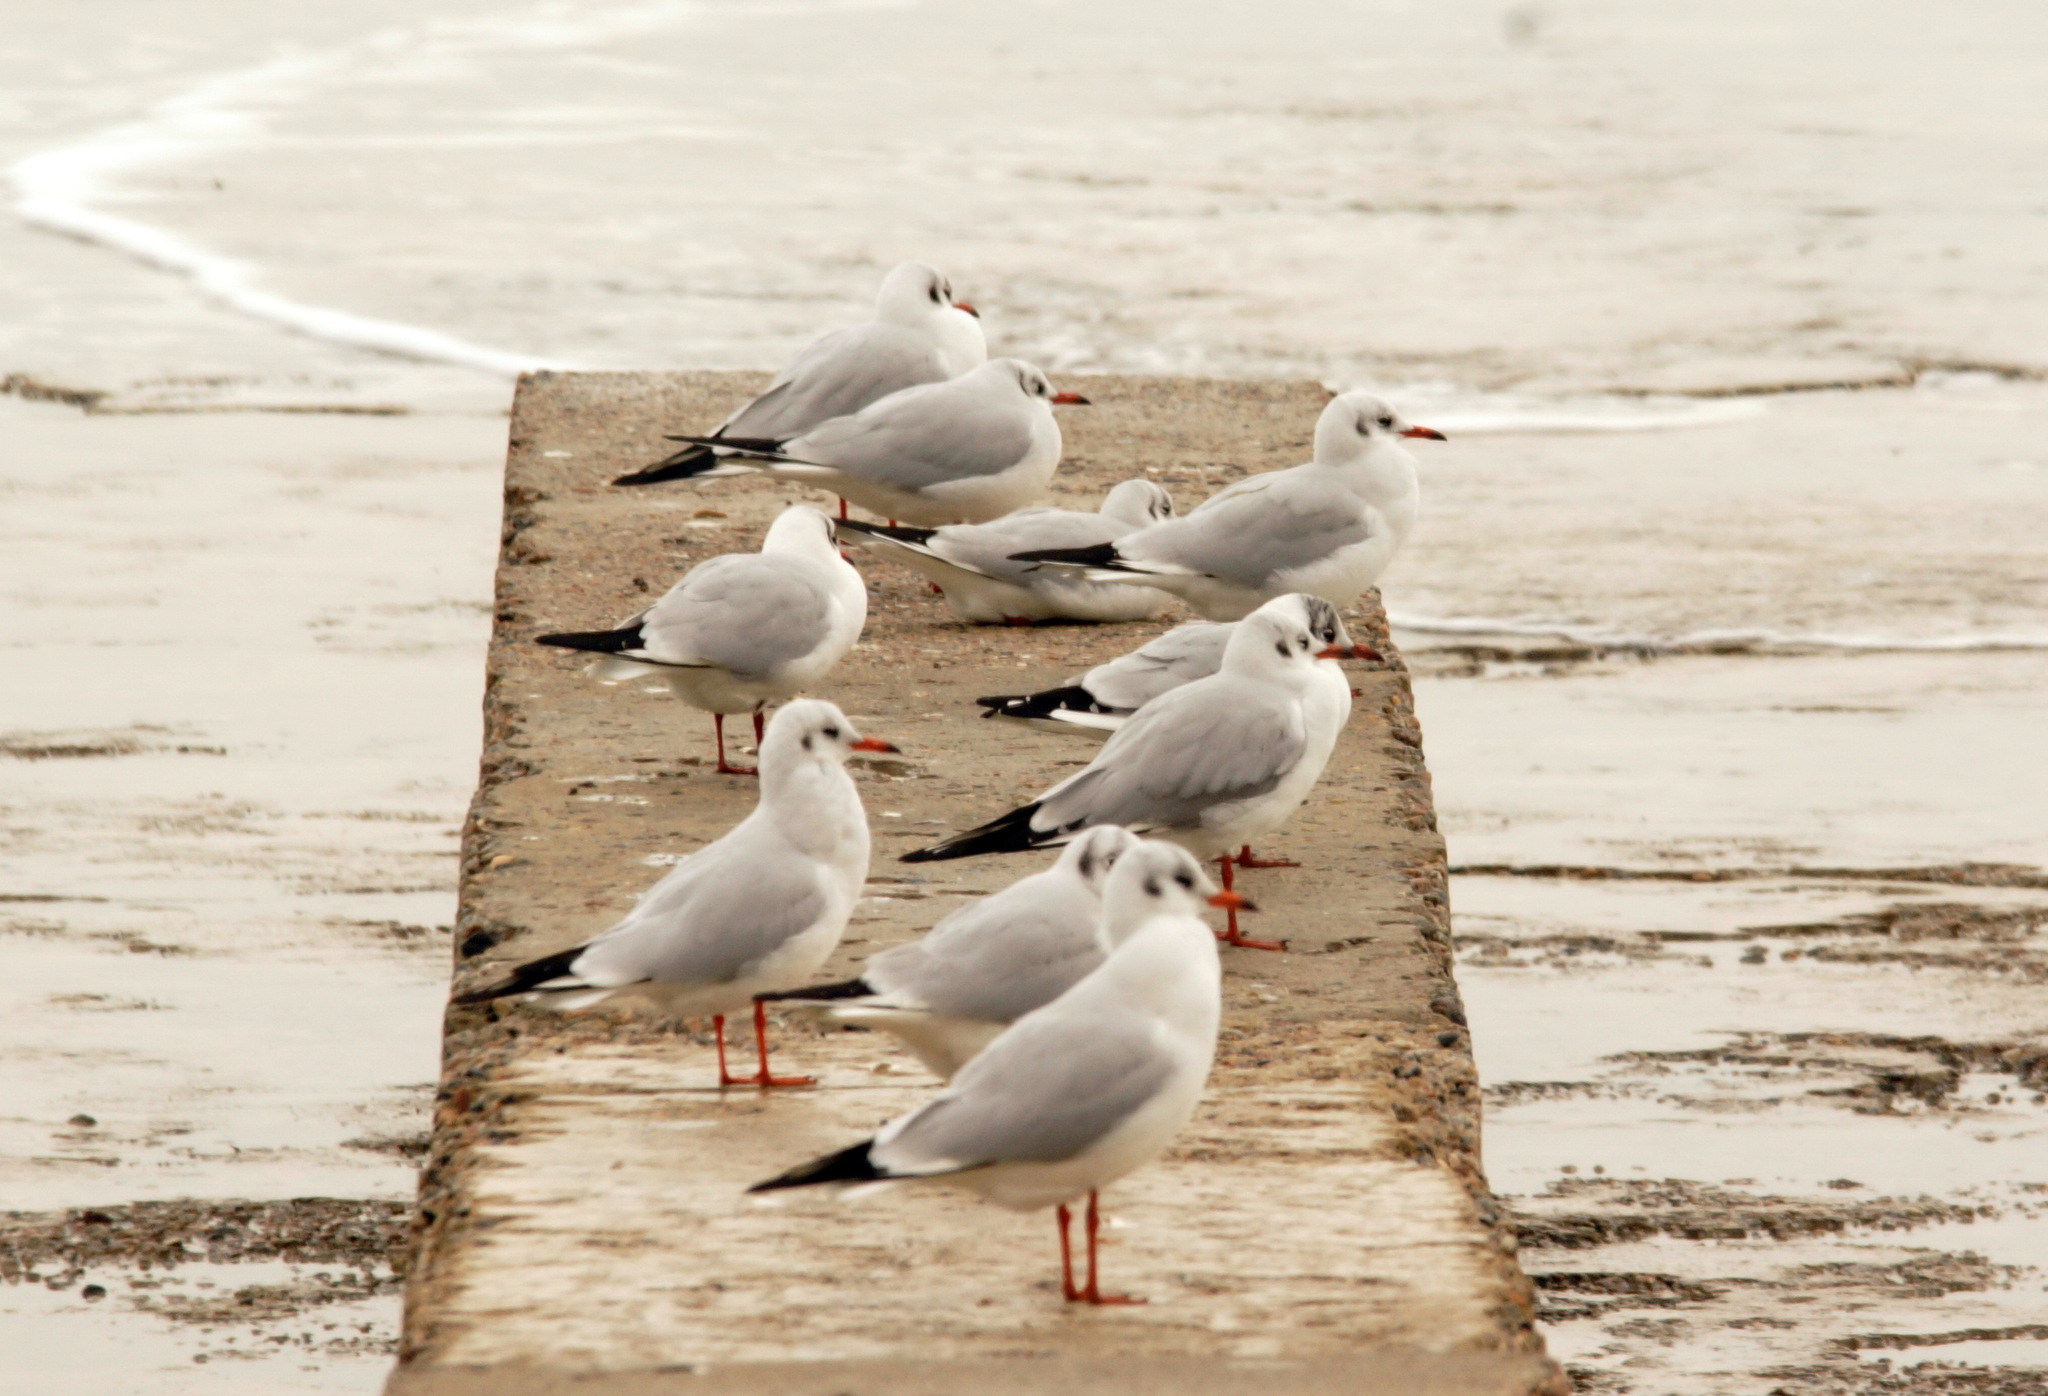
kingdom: Animalia
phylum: Chordata
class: Aves
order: Charadriiformes
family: Laridae
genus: Chroicocephalus
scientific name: Chroicocephalus ridibundus
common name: Black-headed gull
